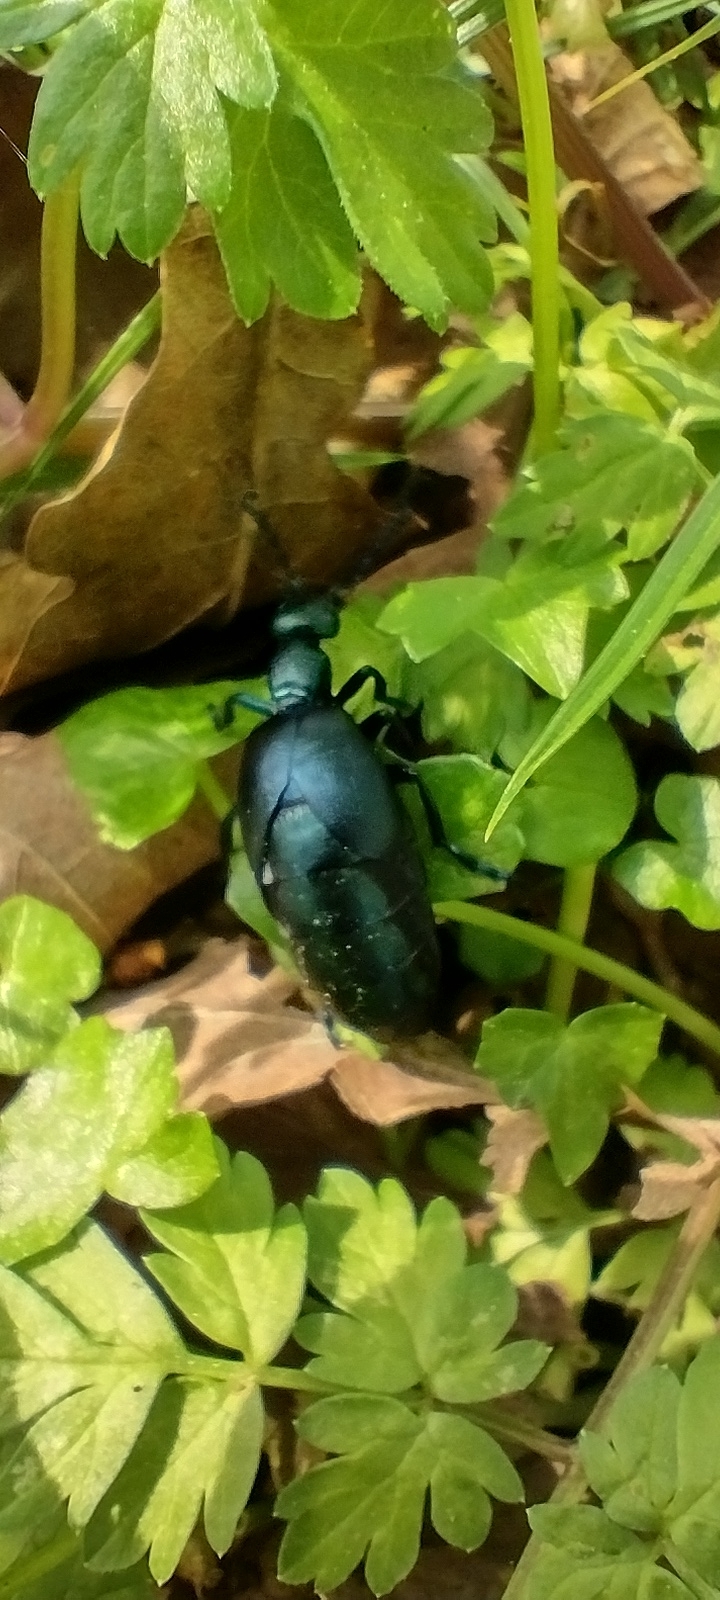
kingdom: Animalia
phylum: Arthropoda
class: Insecta
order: Coleoptera
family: Meloidae
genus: Meloe
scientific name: Meloe violaceus
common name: Violet oil-beetle
